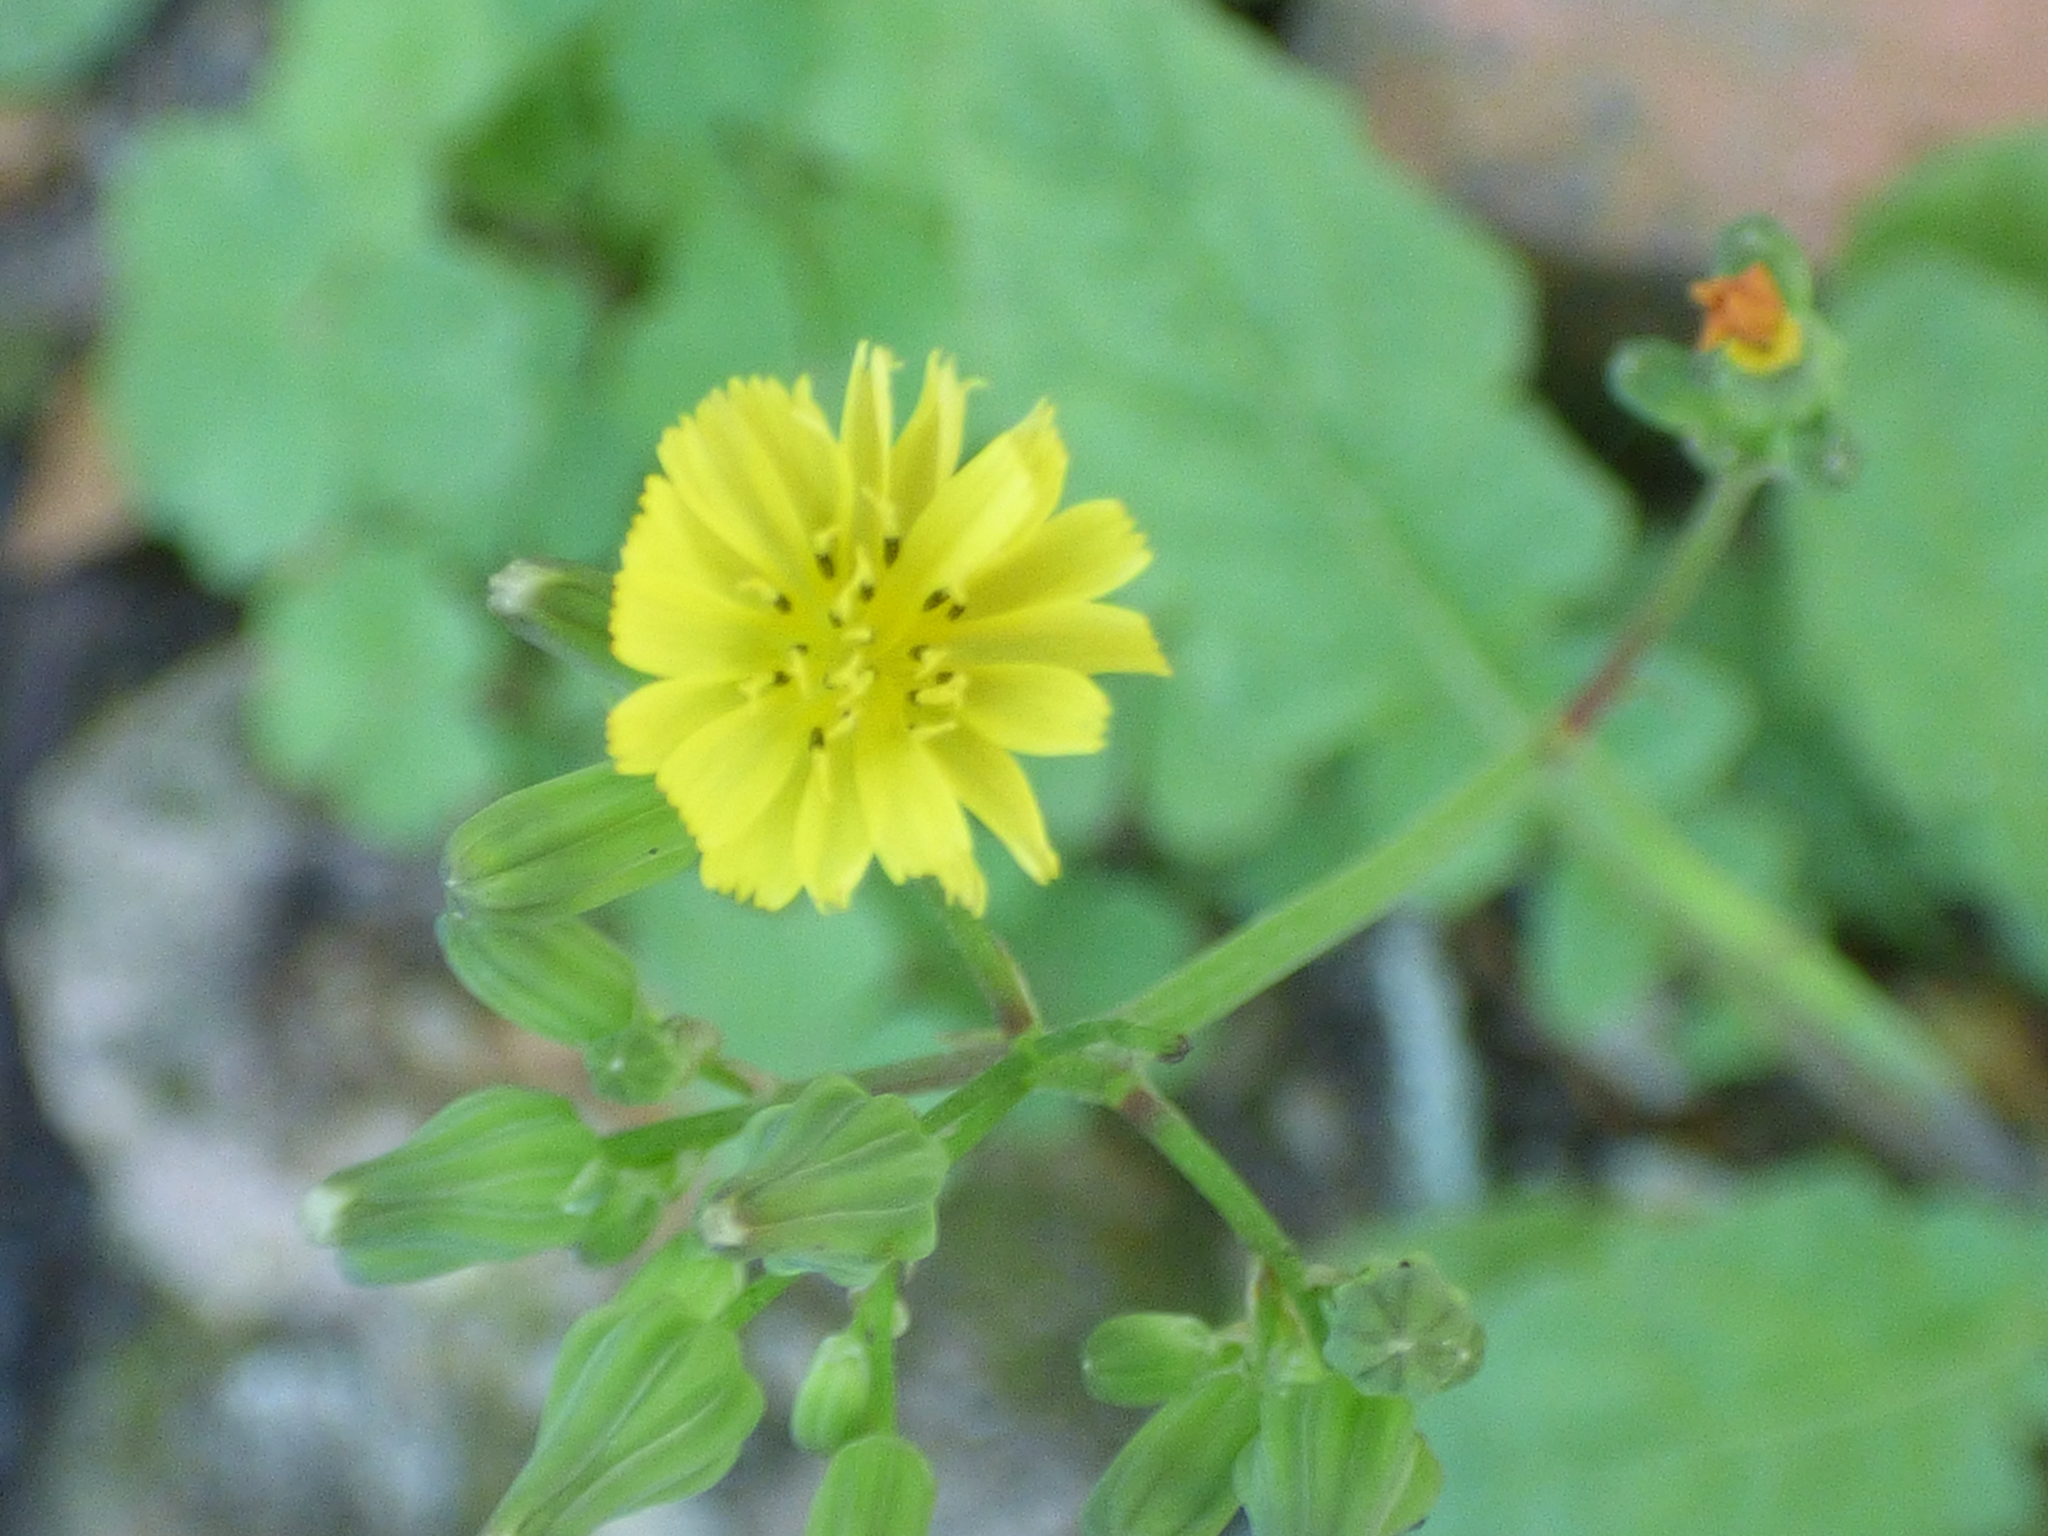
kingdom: Plantae
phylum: Tracheophyta
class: Magnoliopsida
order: Asterales
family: Asteraceae
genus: Youngia
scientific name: Youngia japonica
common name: Oriental false hawksbeard
